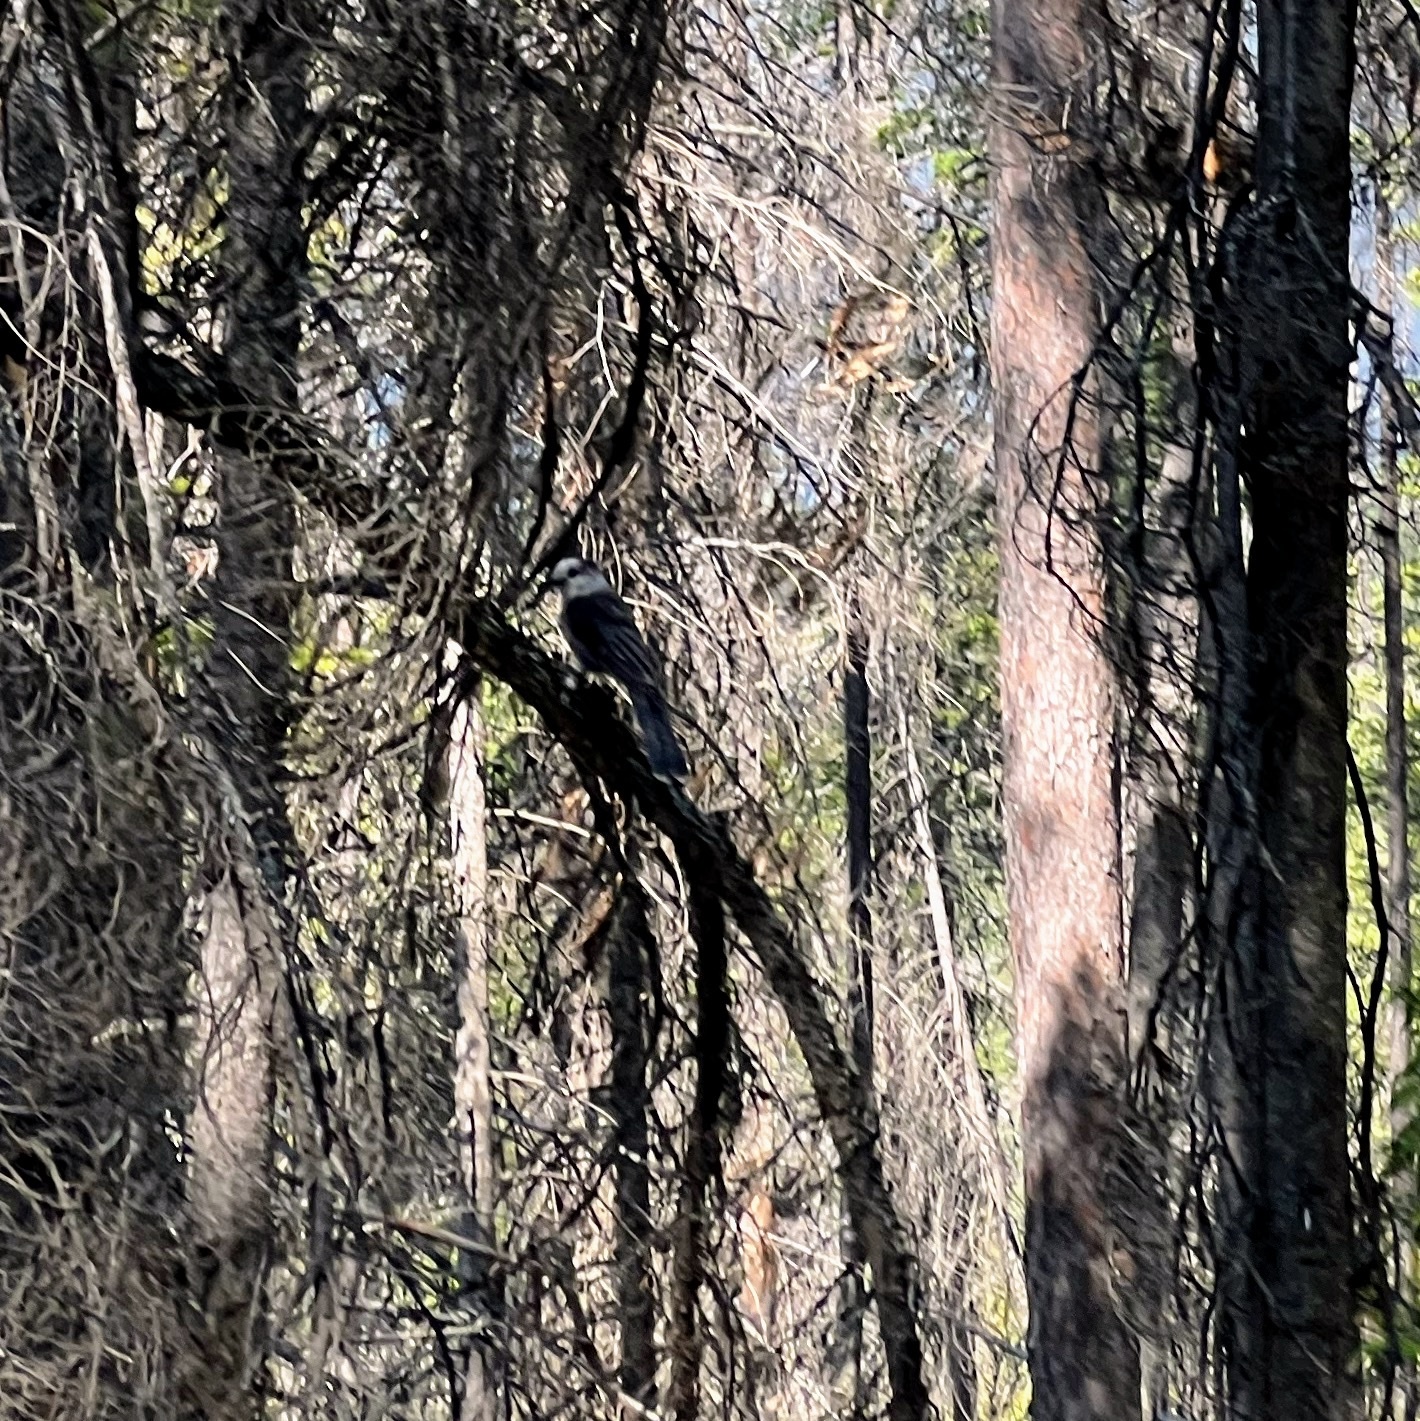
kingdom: Animalia
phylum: Chordata
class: Aves
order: Passeriformes
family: Corvidae
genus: Perisoreus
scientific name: Perisoreus canadensis
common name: Gray jay
